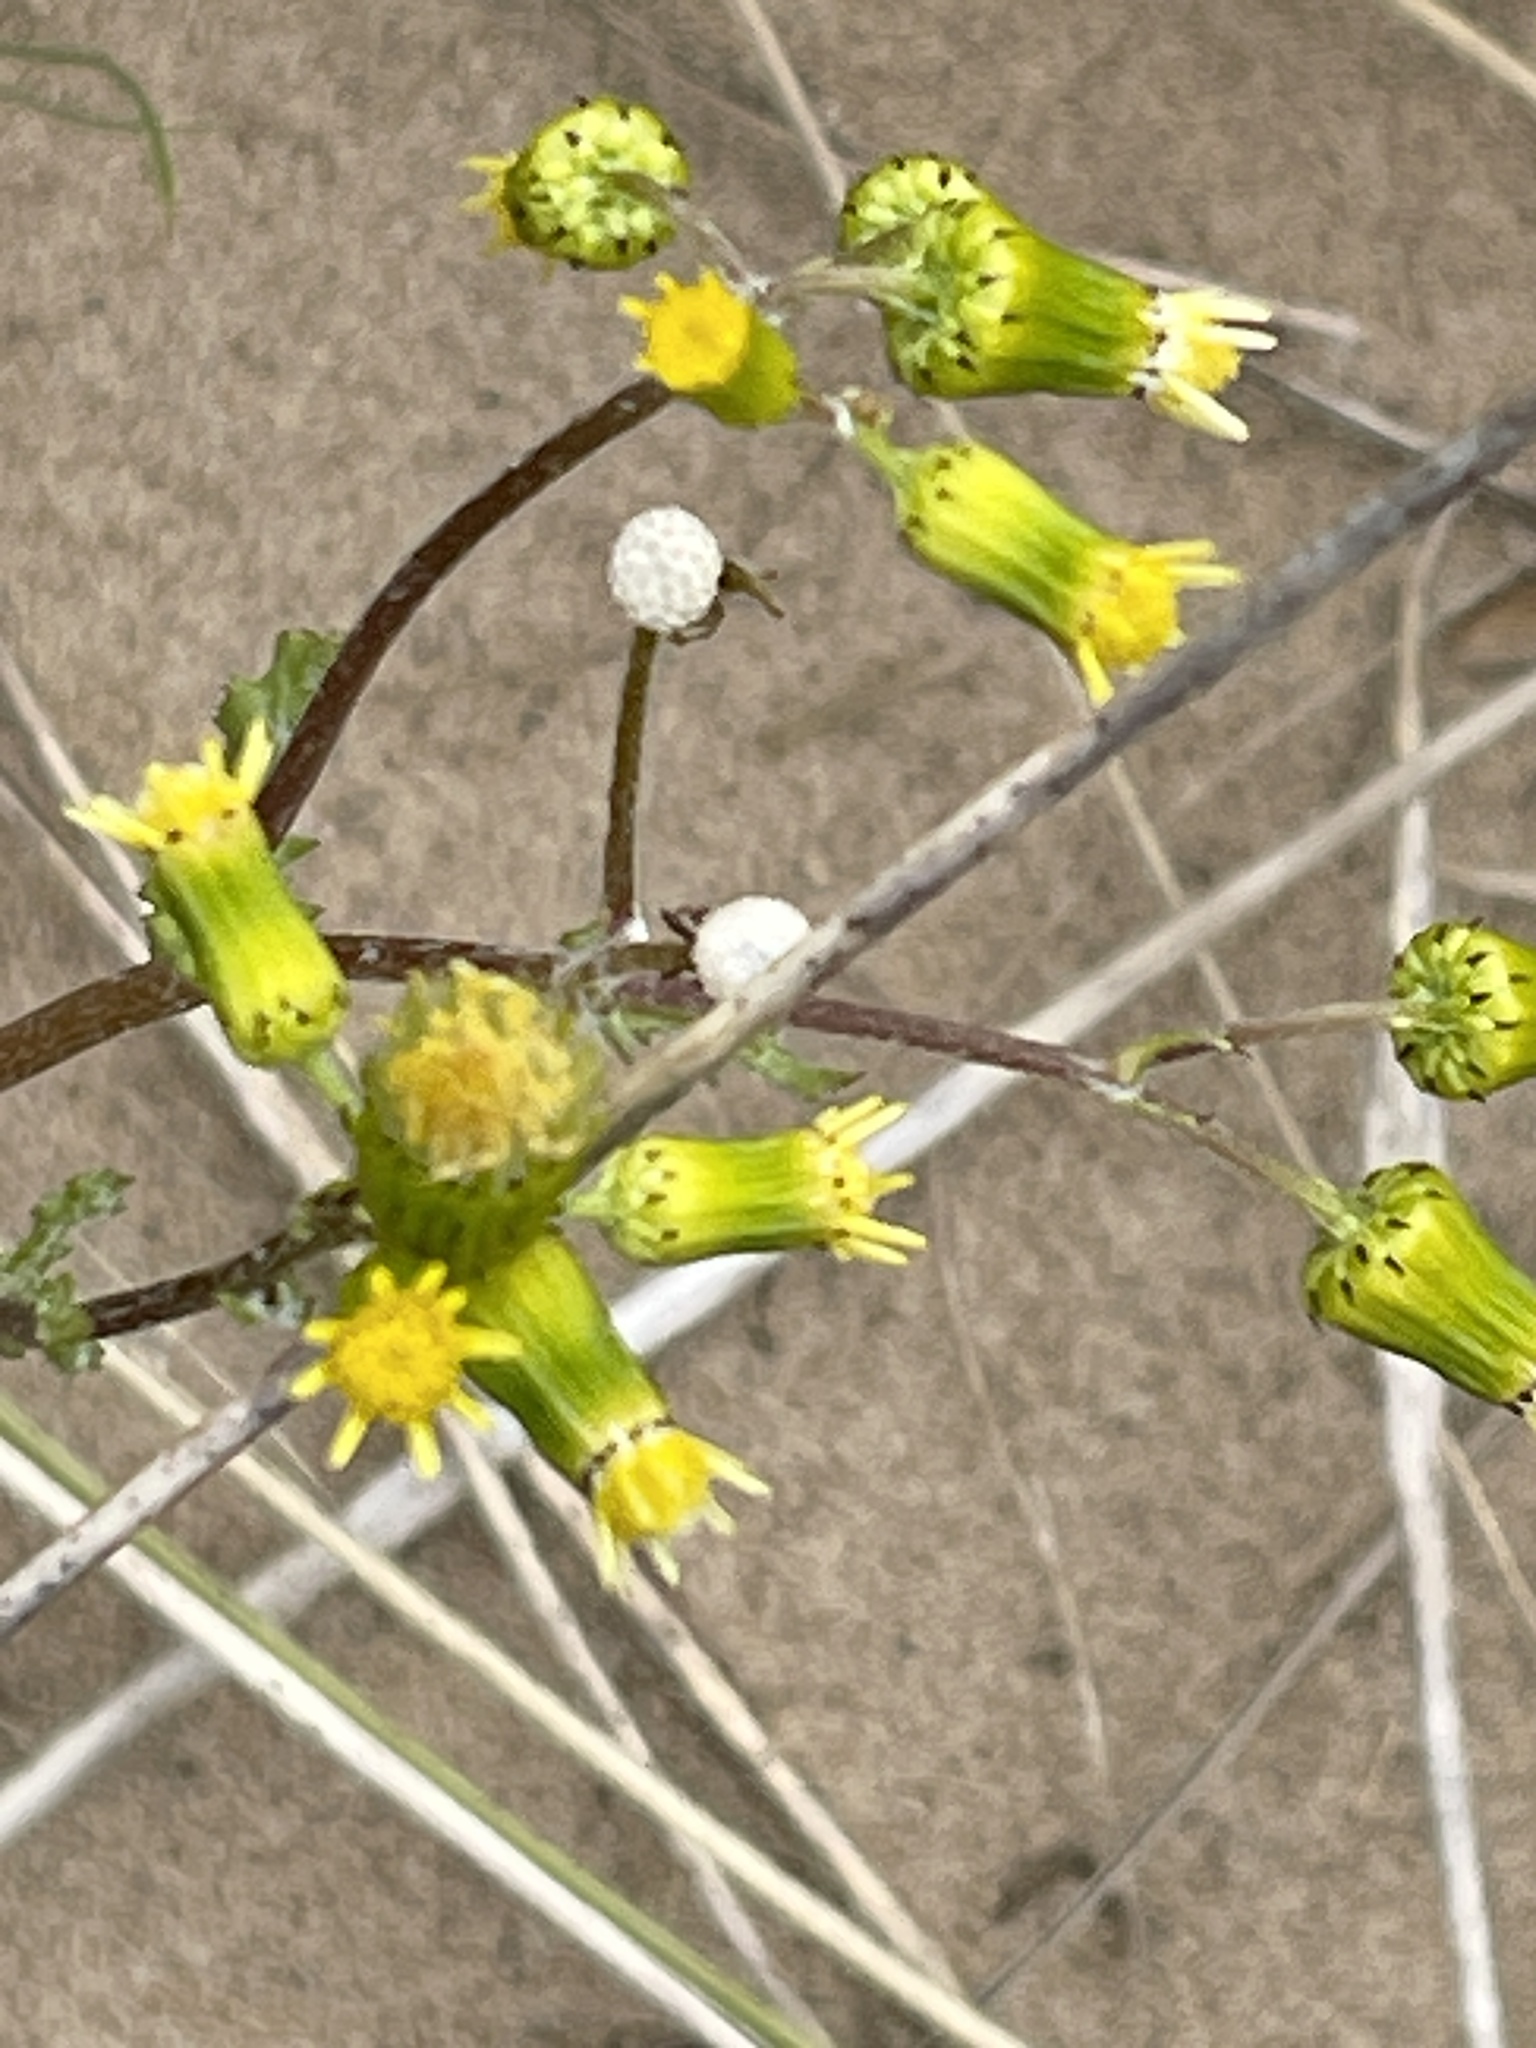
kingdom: Plantae
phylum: Tracheophyta
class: Magnoliopsida
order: Asterales
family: Asteraceae
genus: Senecio
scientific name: Senecio vulgaris
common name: Old-man-in-the-spring
